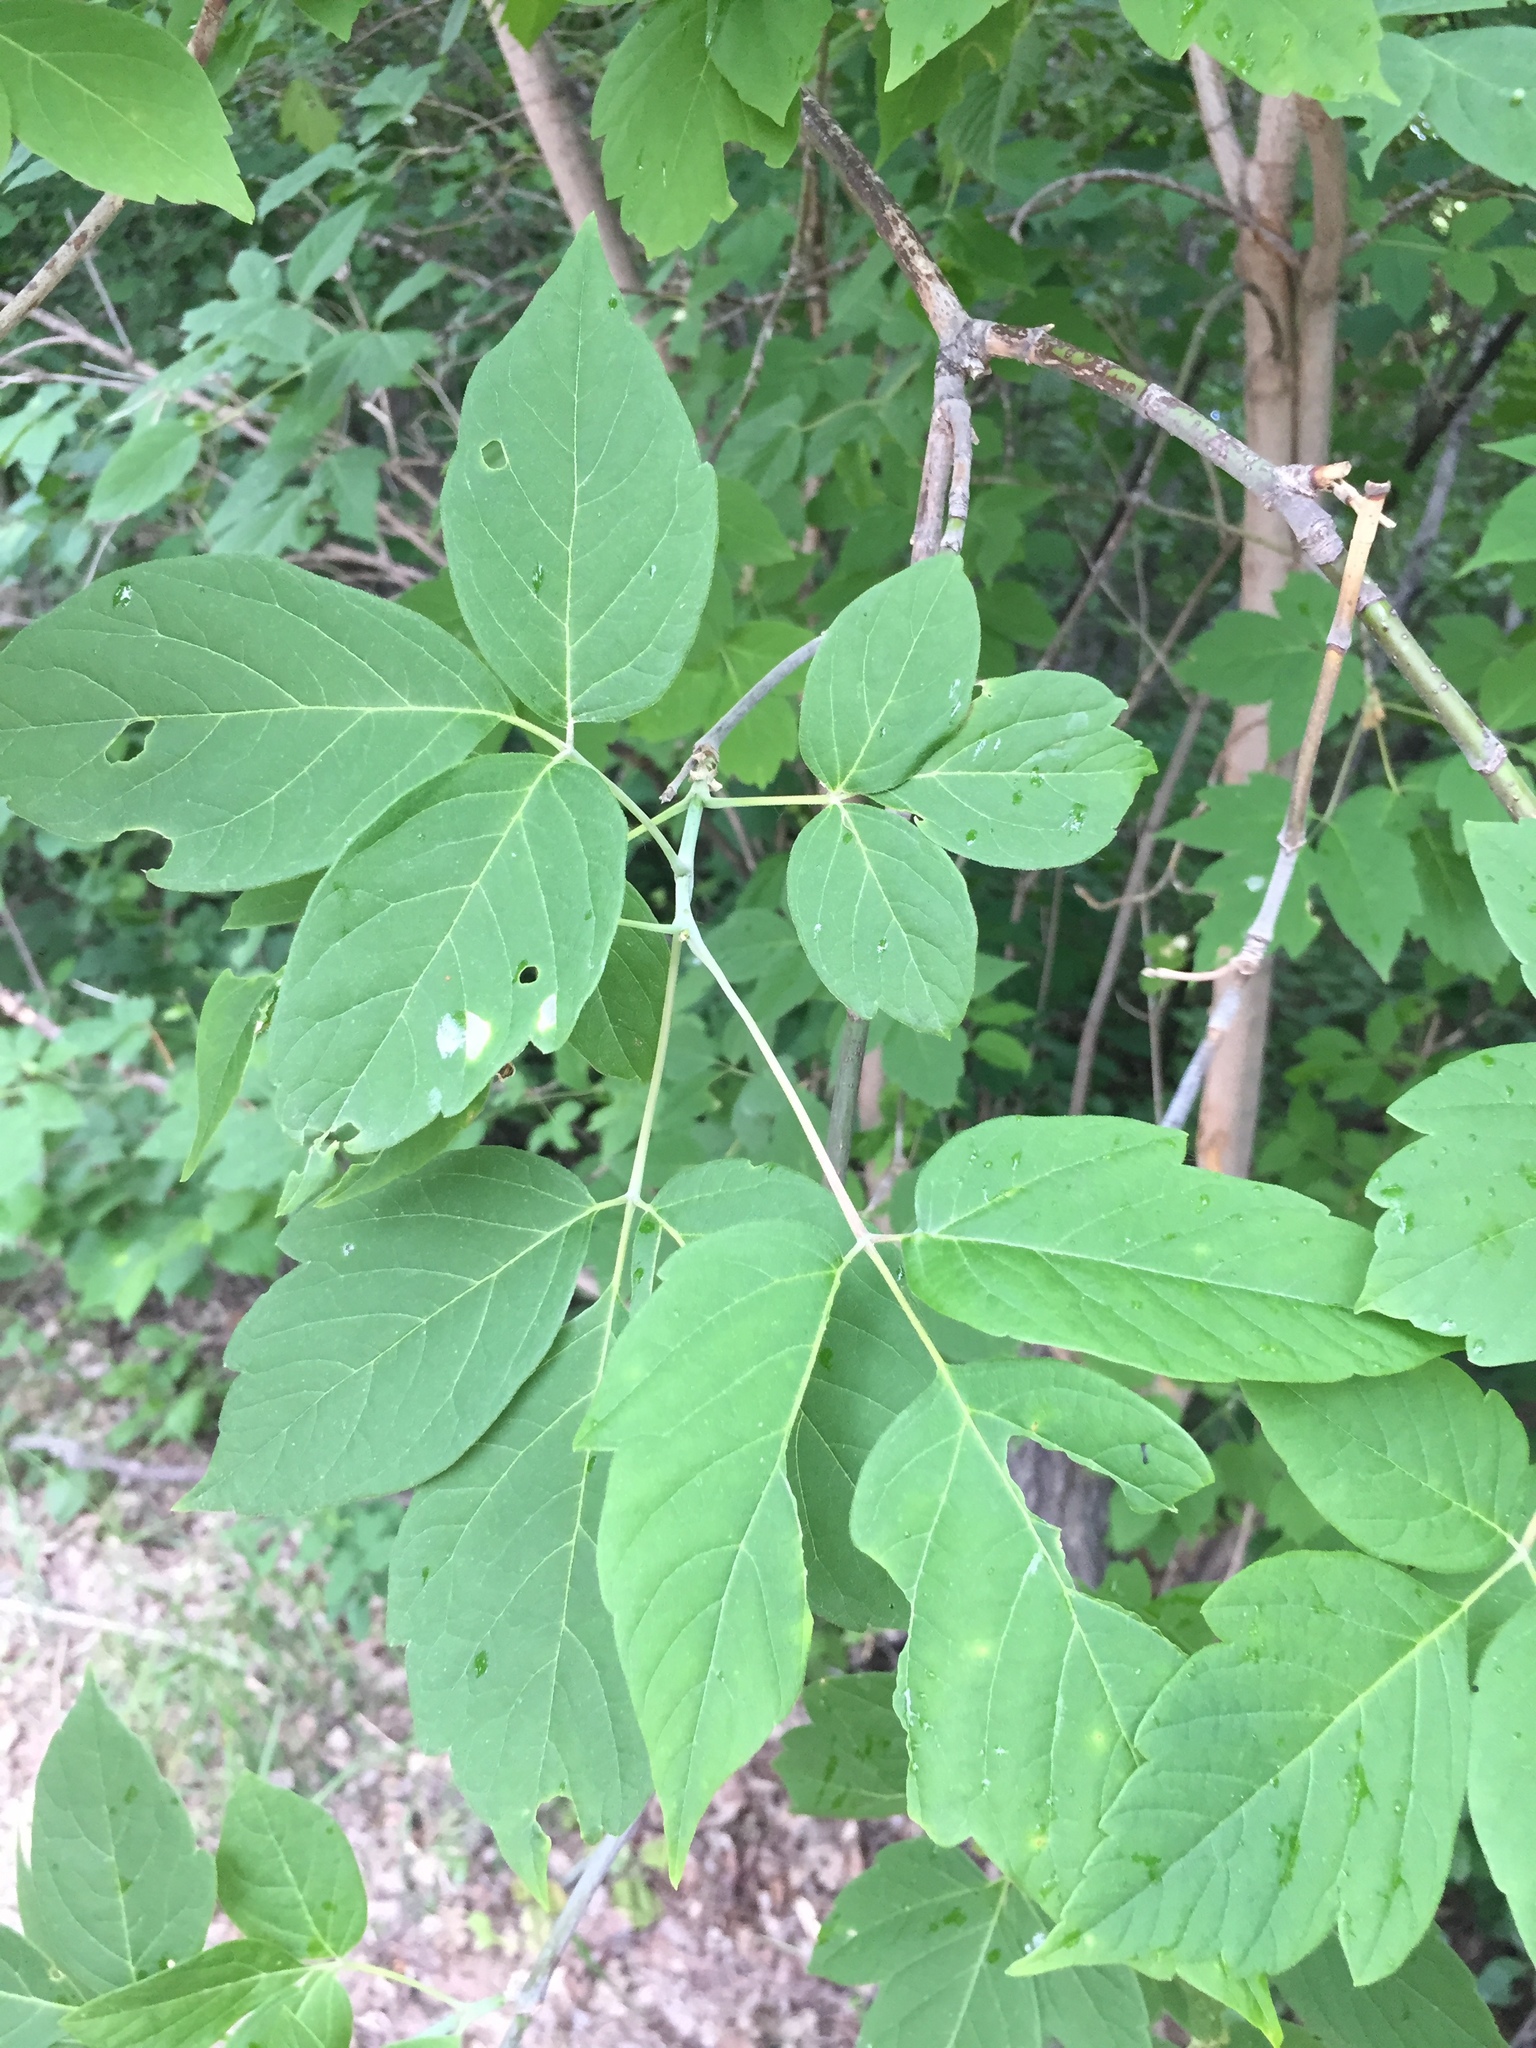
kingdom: Plantae
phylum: Tracheophyta
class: Magnoliopsida
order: Sapindales
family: Sapindaceae
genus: Acer
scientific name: Acer negundo
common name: Ashleaf maple
